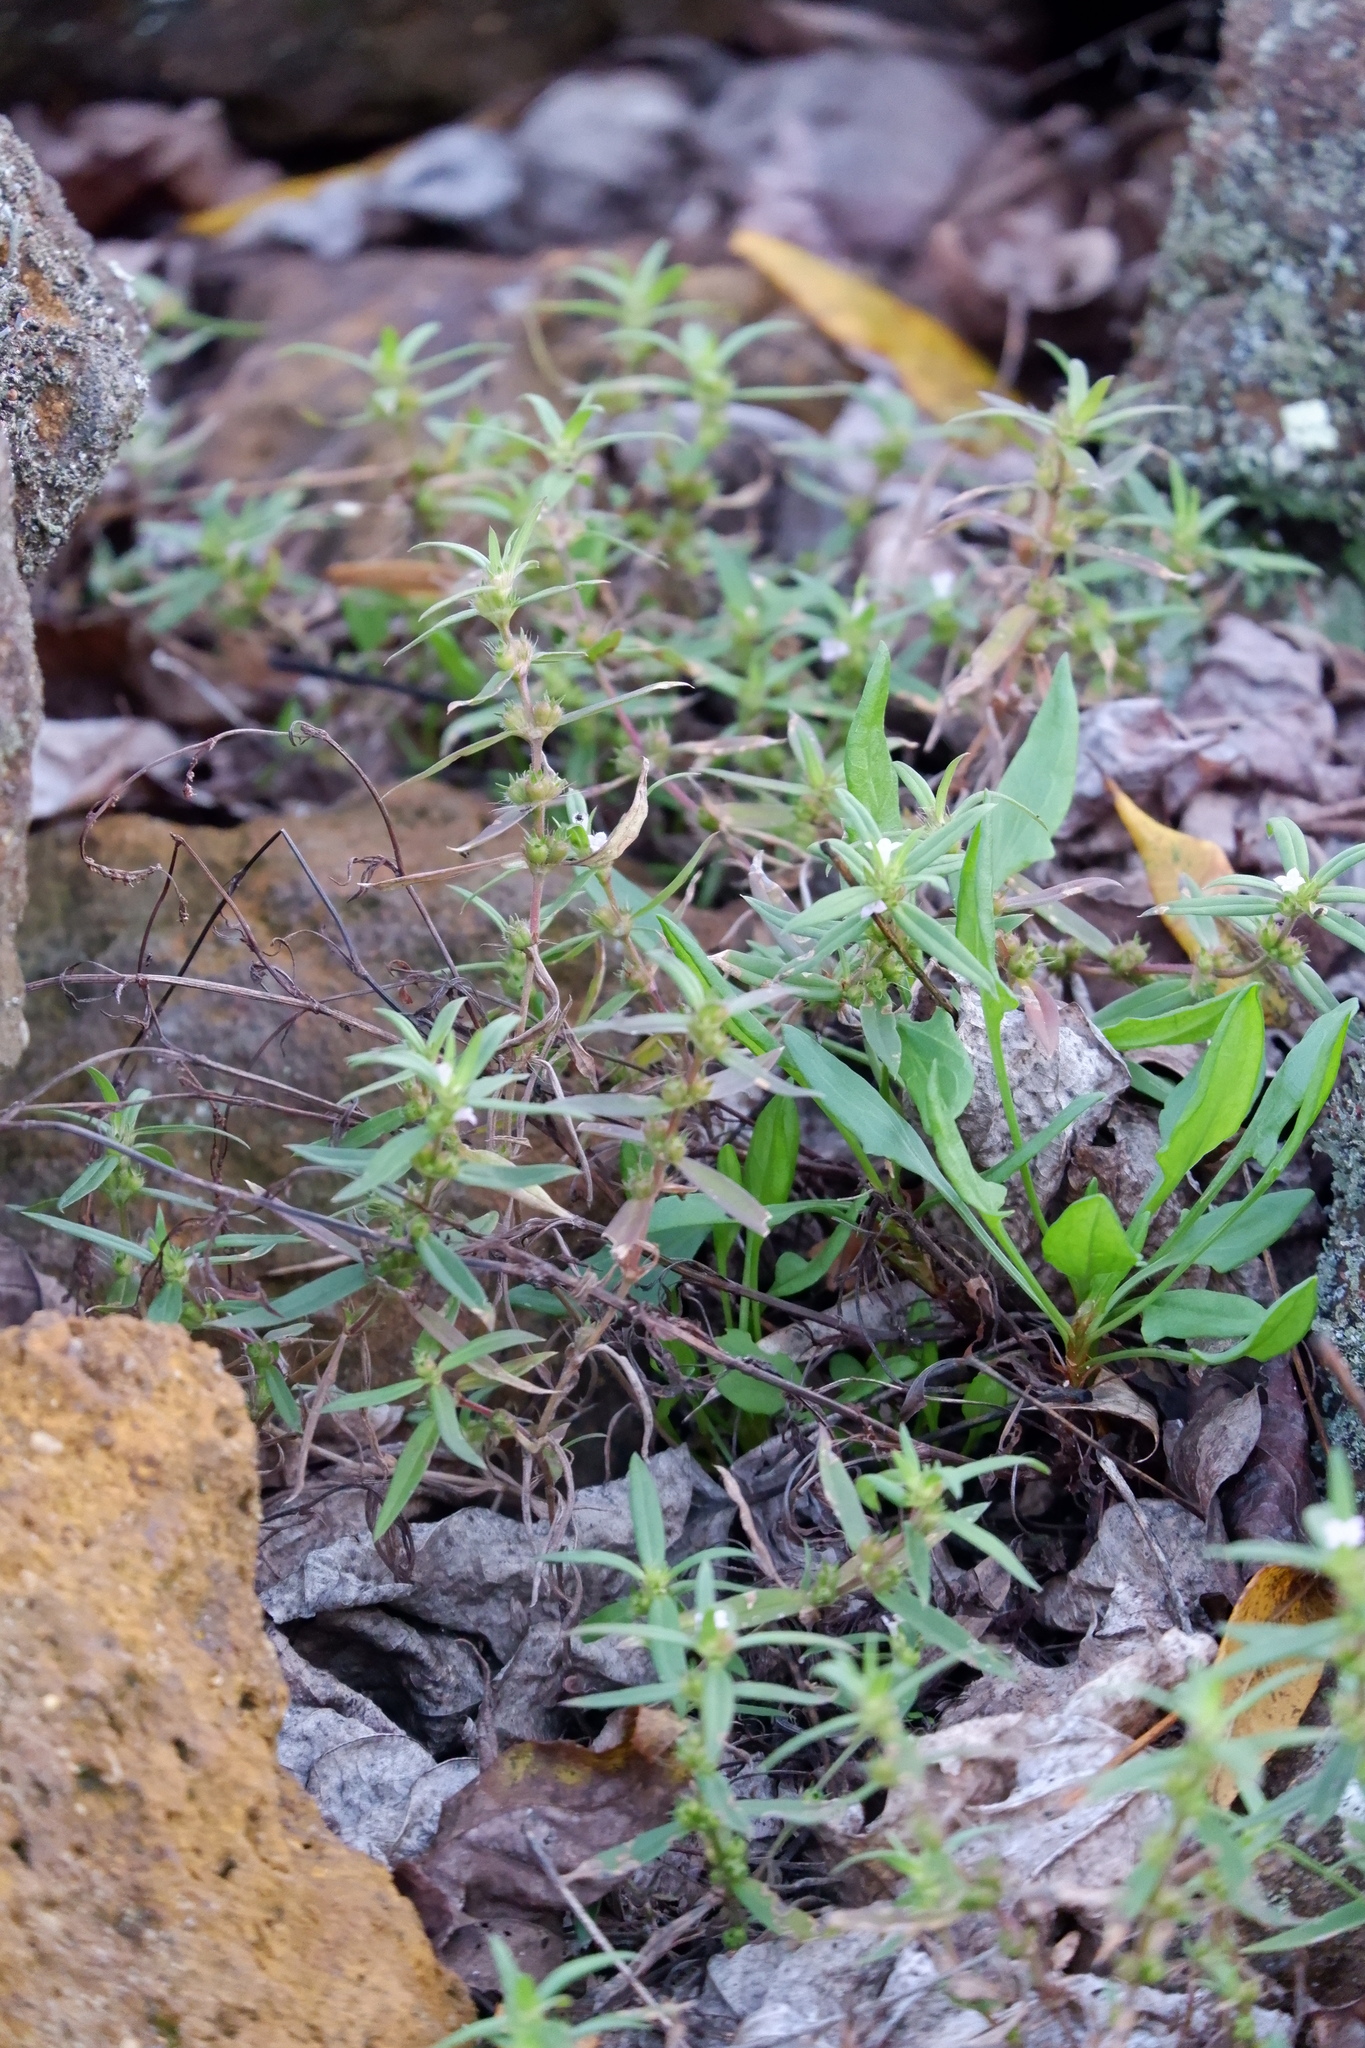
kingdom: Plantae
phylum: Tracheophyta
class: Magnoliopsida
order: Gentianales
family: Rubiaceae
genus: Hexasepalum
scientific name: Hexasepalum teres
